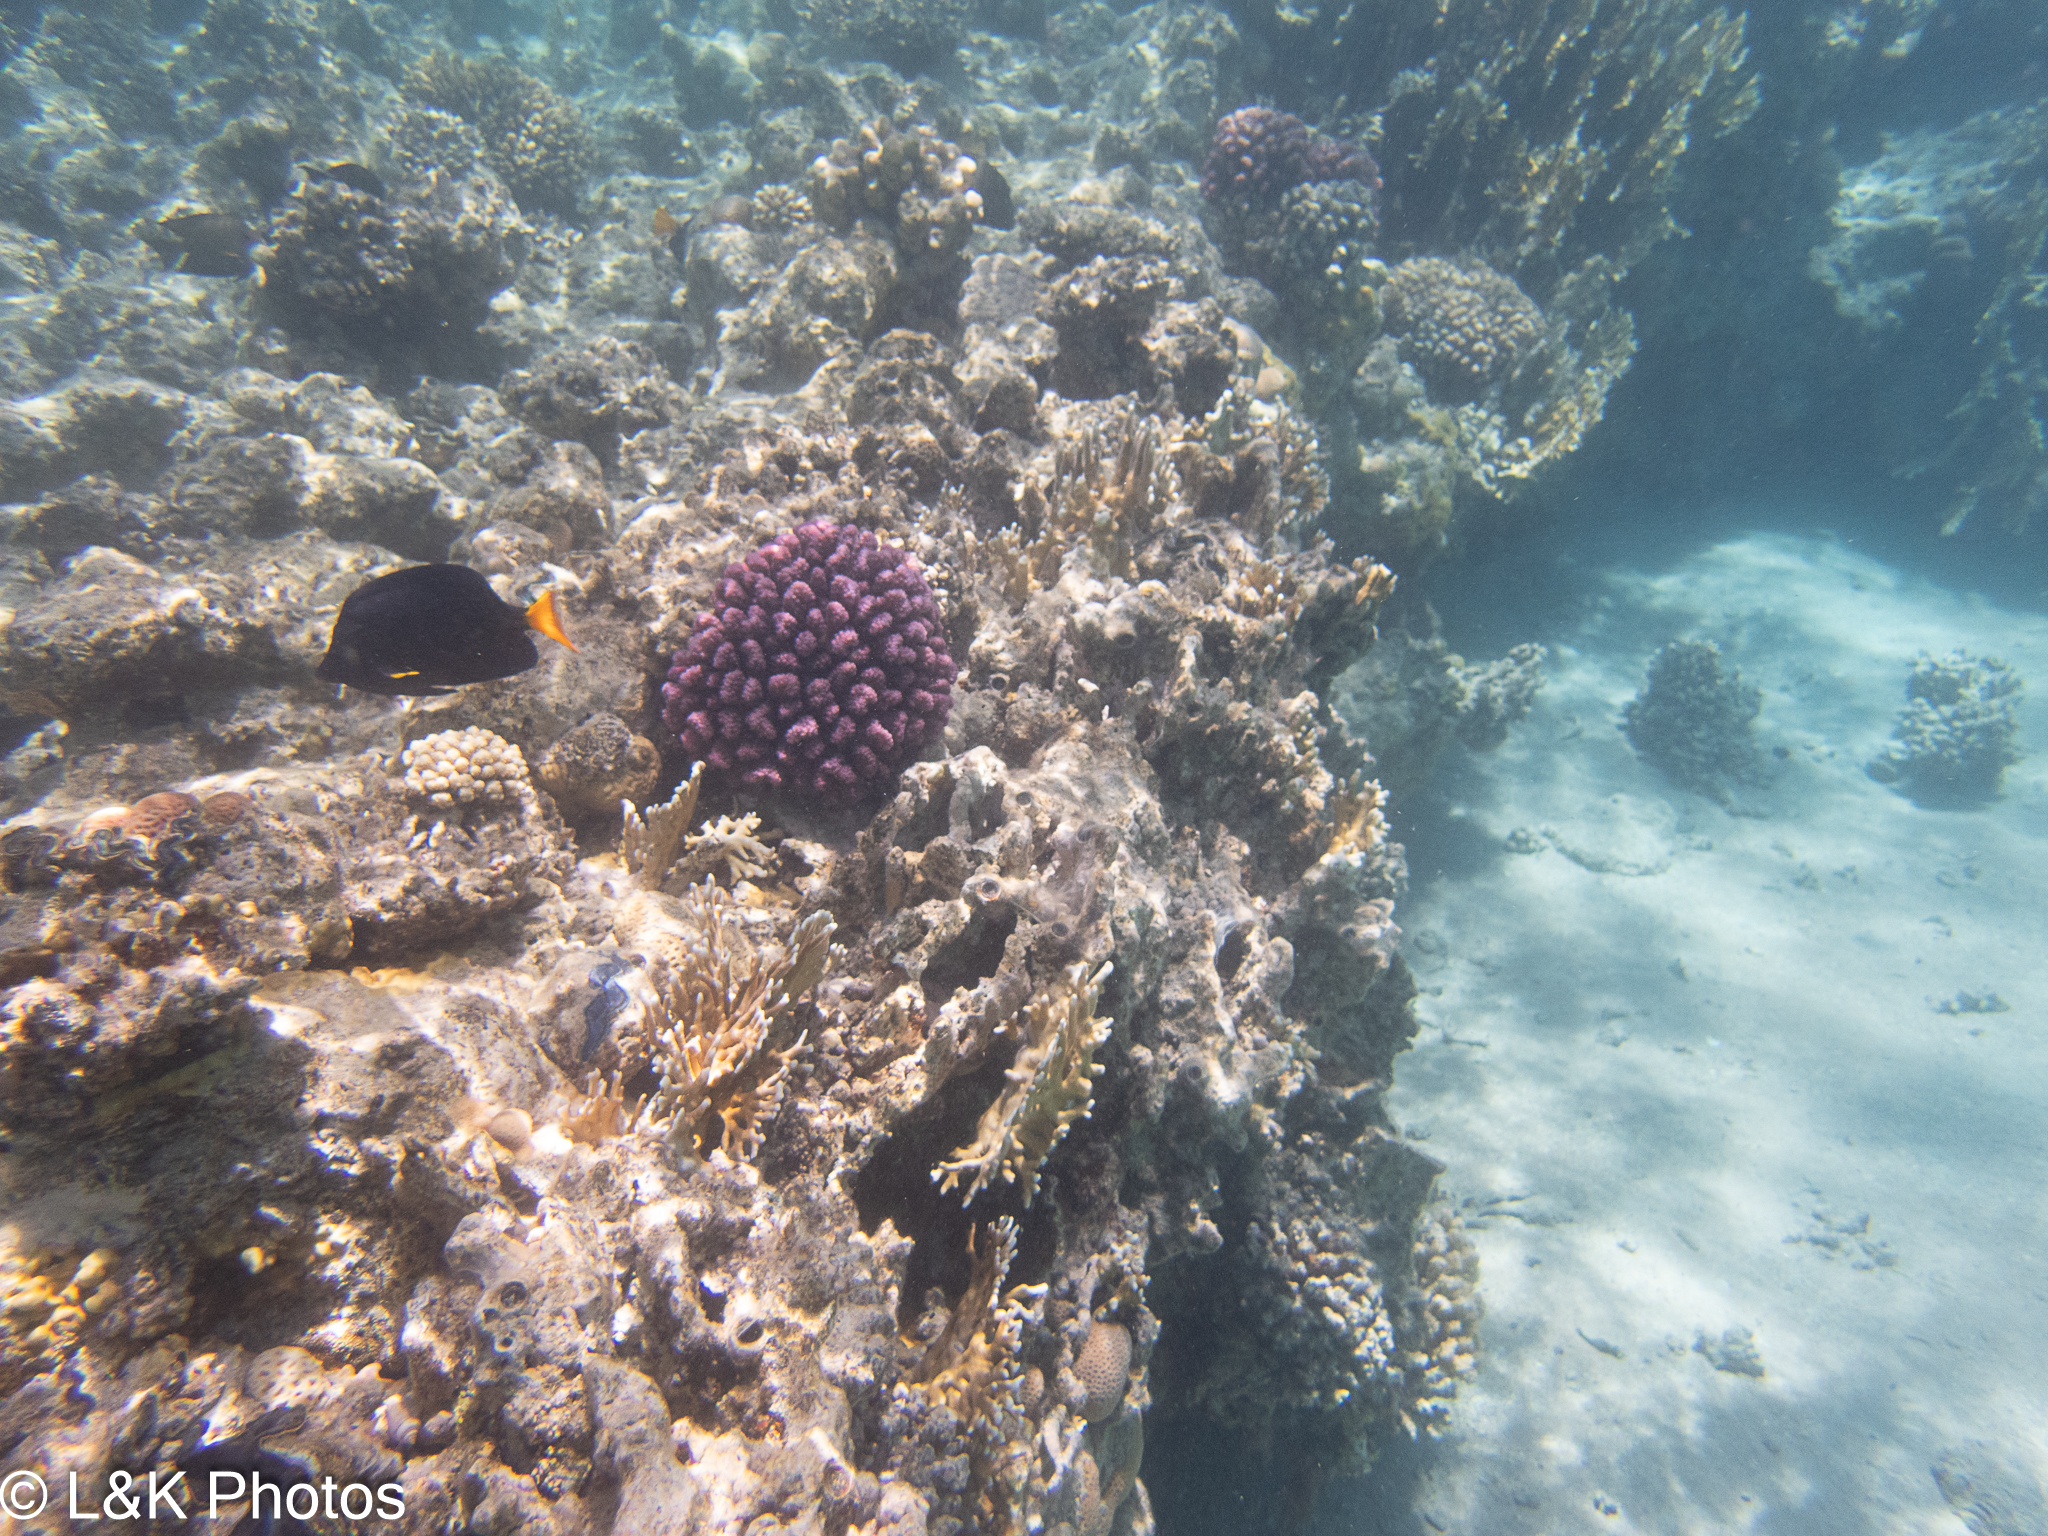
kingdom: Animalia
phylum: Cnidaria
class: Anthozoa
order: Scleractinia
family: Pocilloporidae
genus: Pocillopora
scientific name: Pocillopora verrucosa
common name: Cauliflower coral
